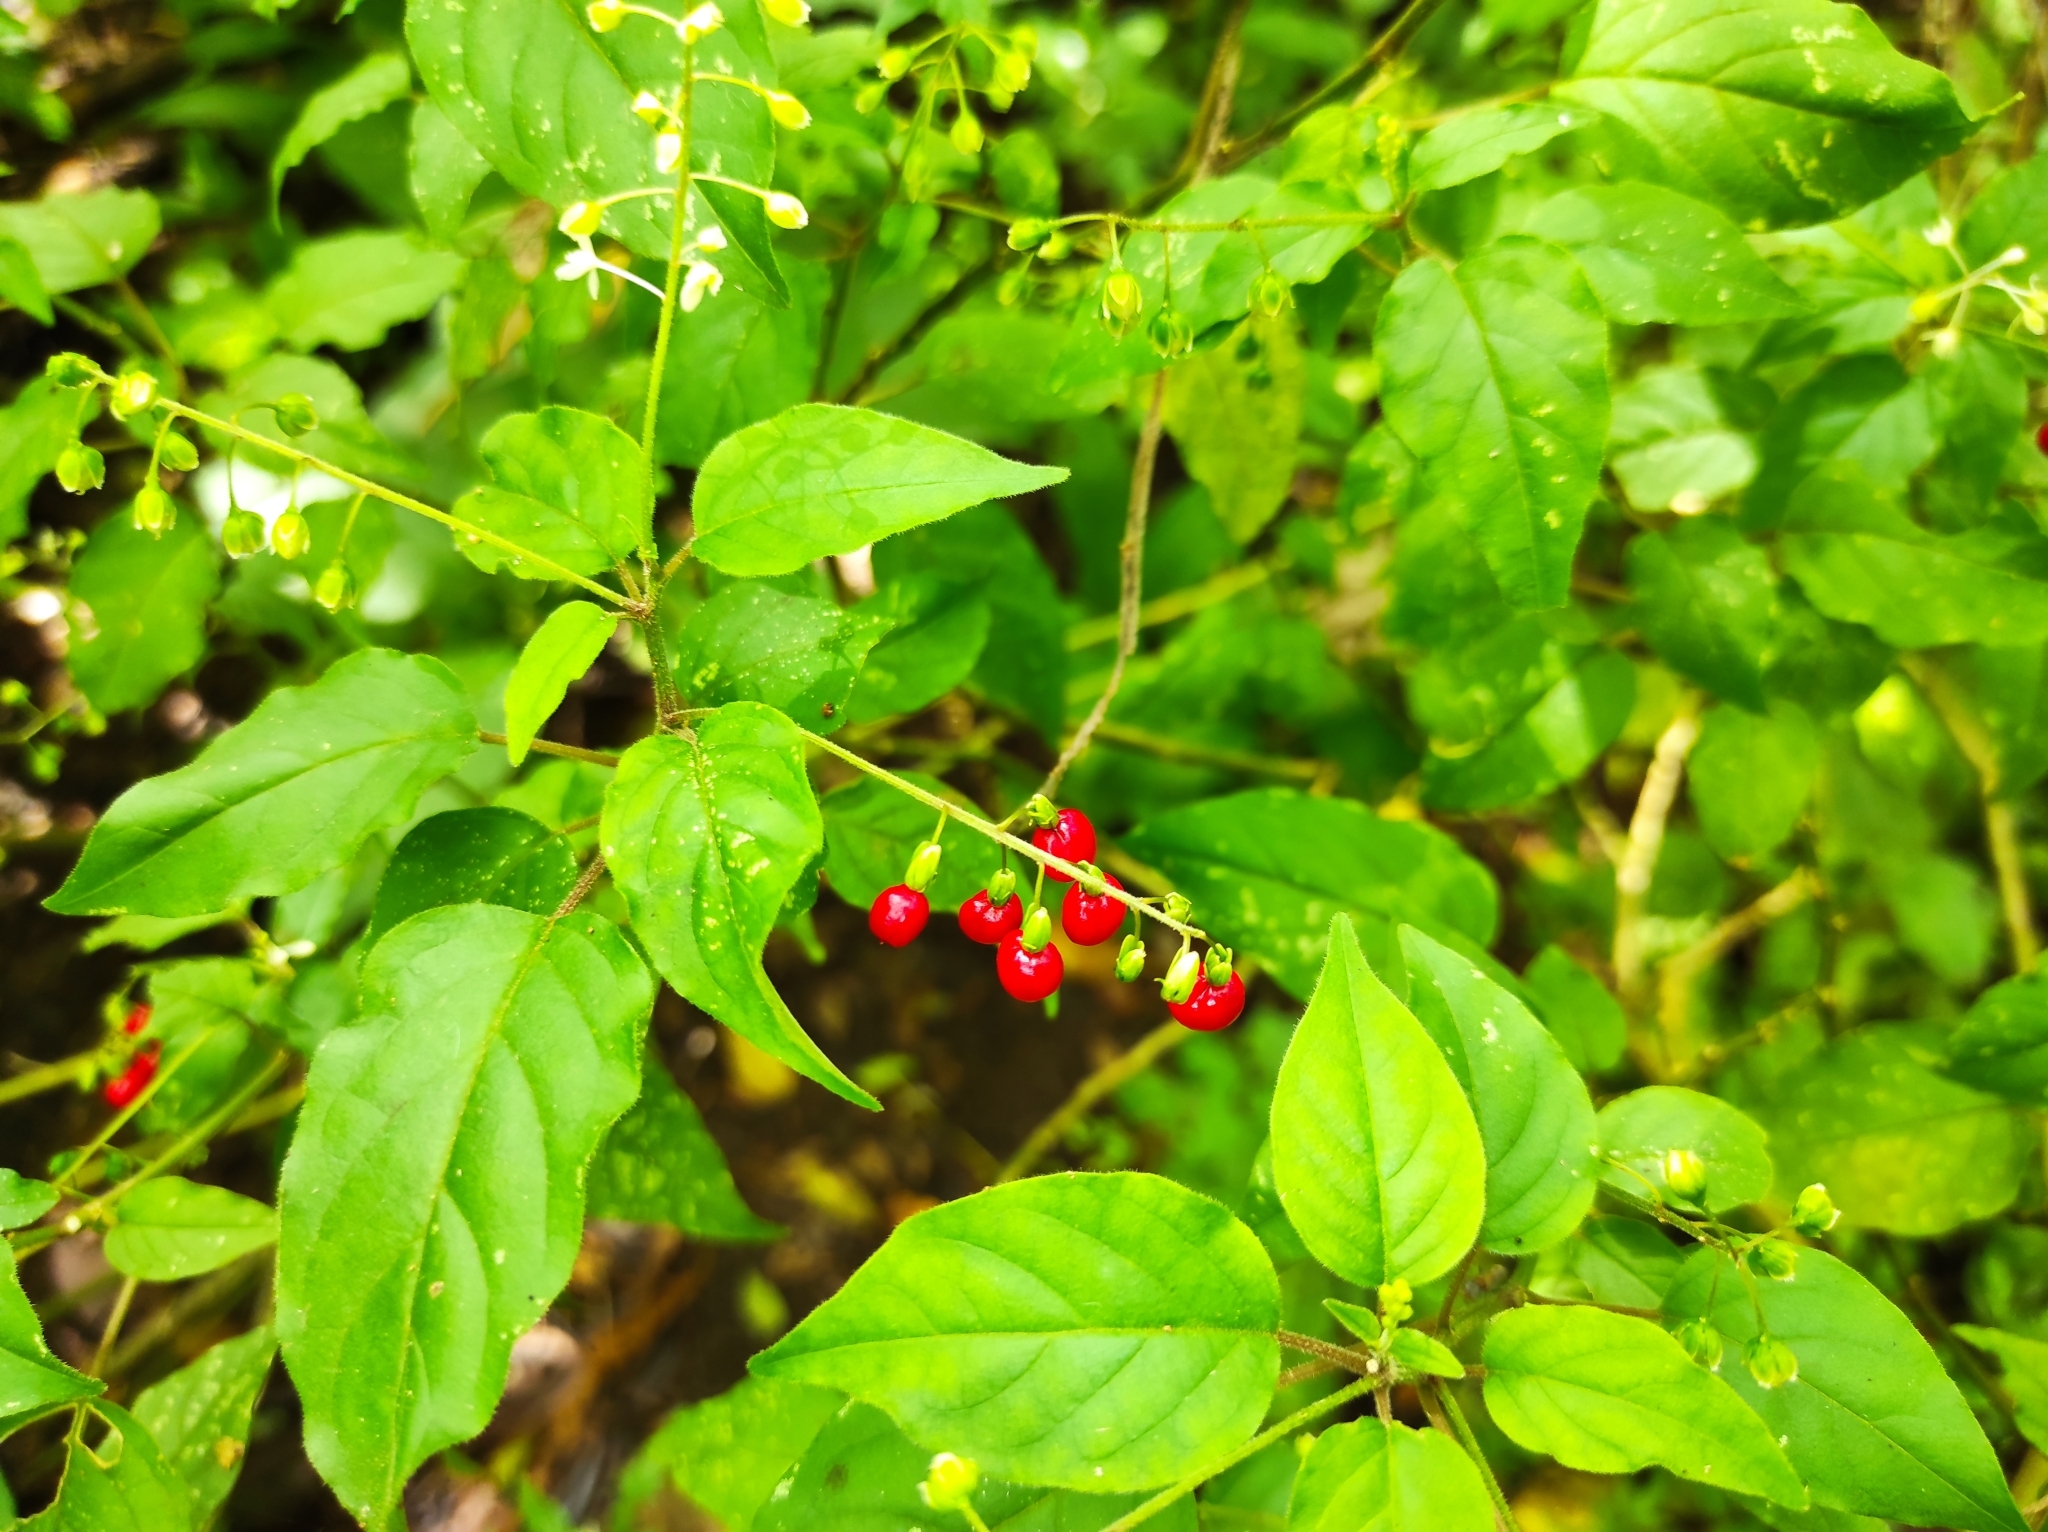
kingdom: Plantae
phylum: Tracheophyta
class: Magnoliopsida
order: Caryophyllales
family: Phytolaccaceae
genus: Rivina
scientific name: Rivina humilis
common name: Rougeplant
